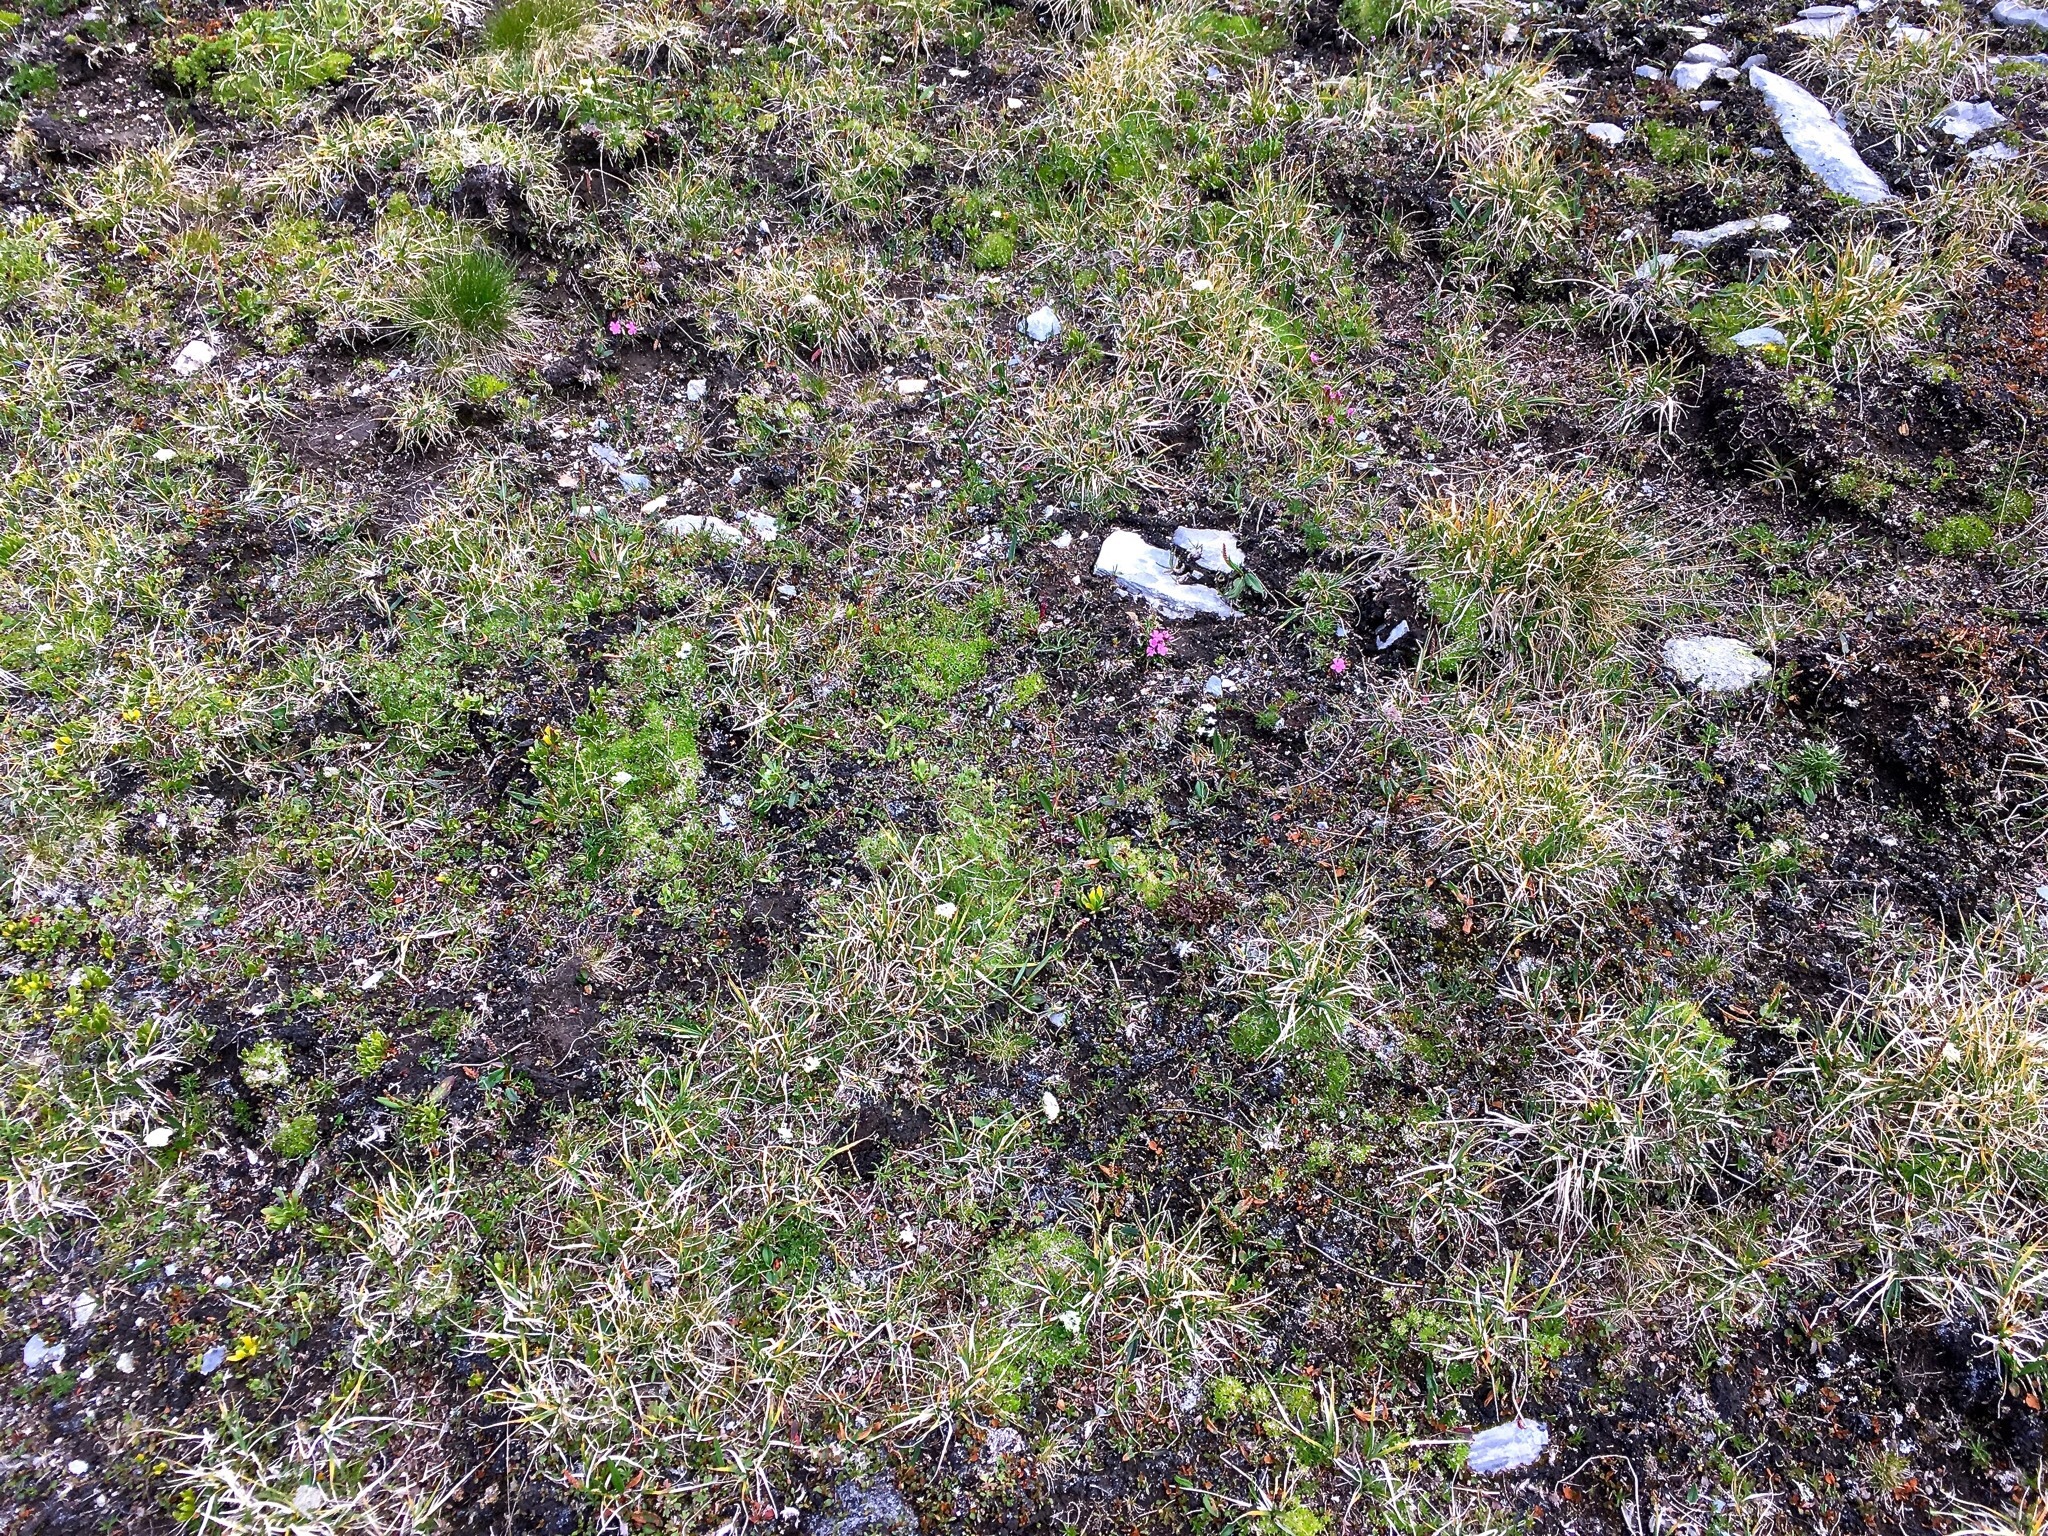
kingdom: Plantae
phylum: Tracheophyta
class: Magnoliopsida
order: Caryophyllales
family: Caryophyllaceae
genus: Dianthus
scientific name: Dianthus glacialis
